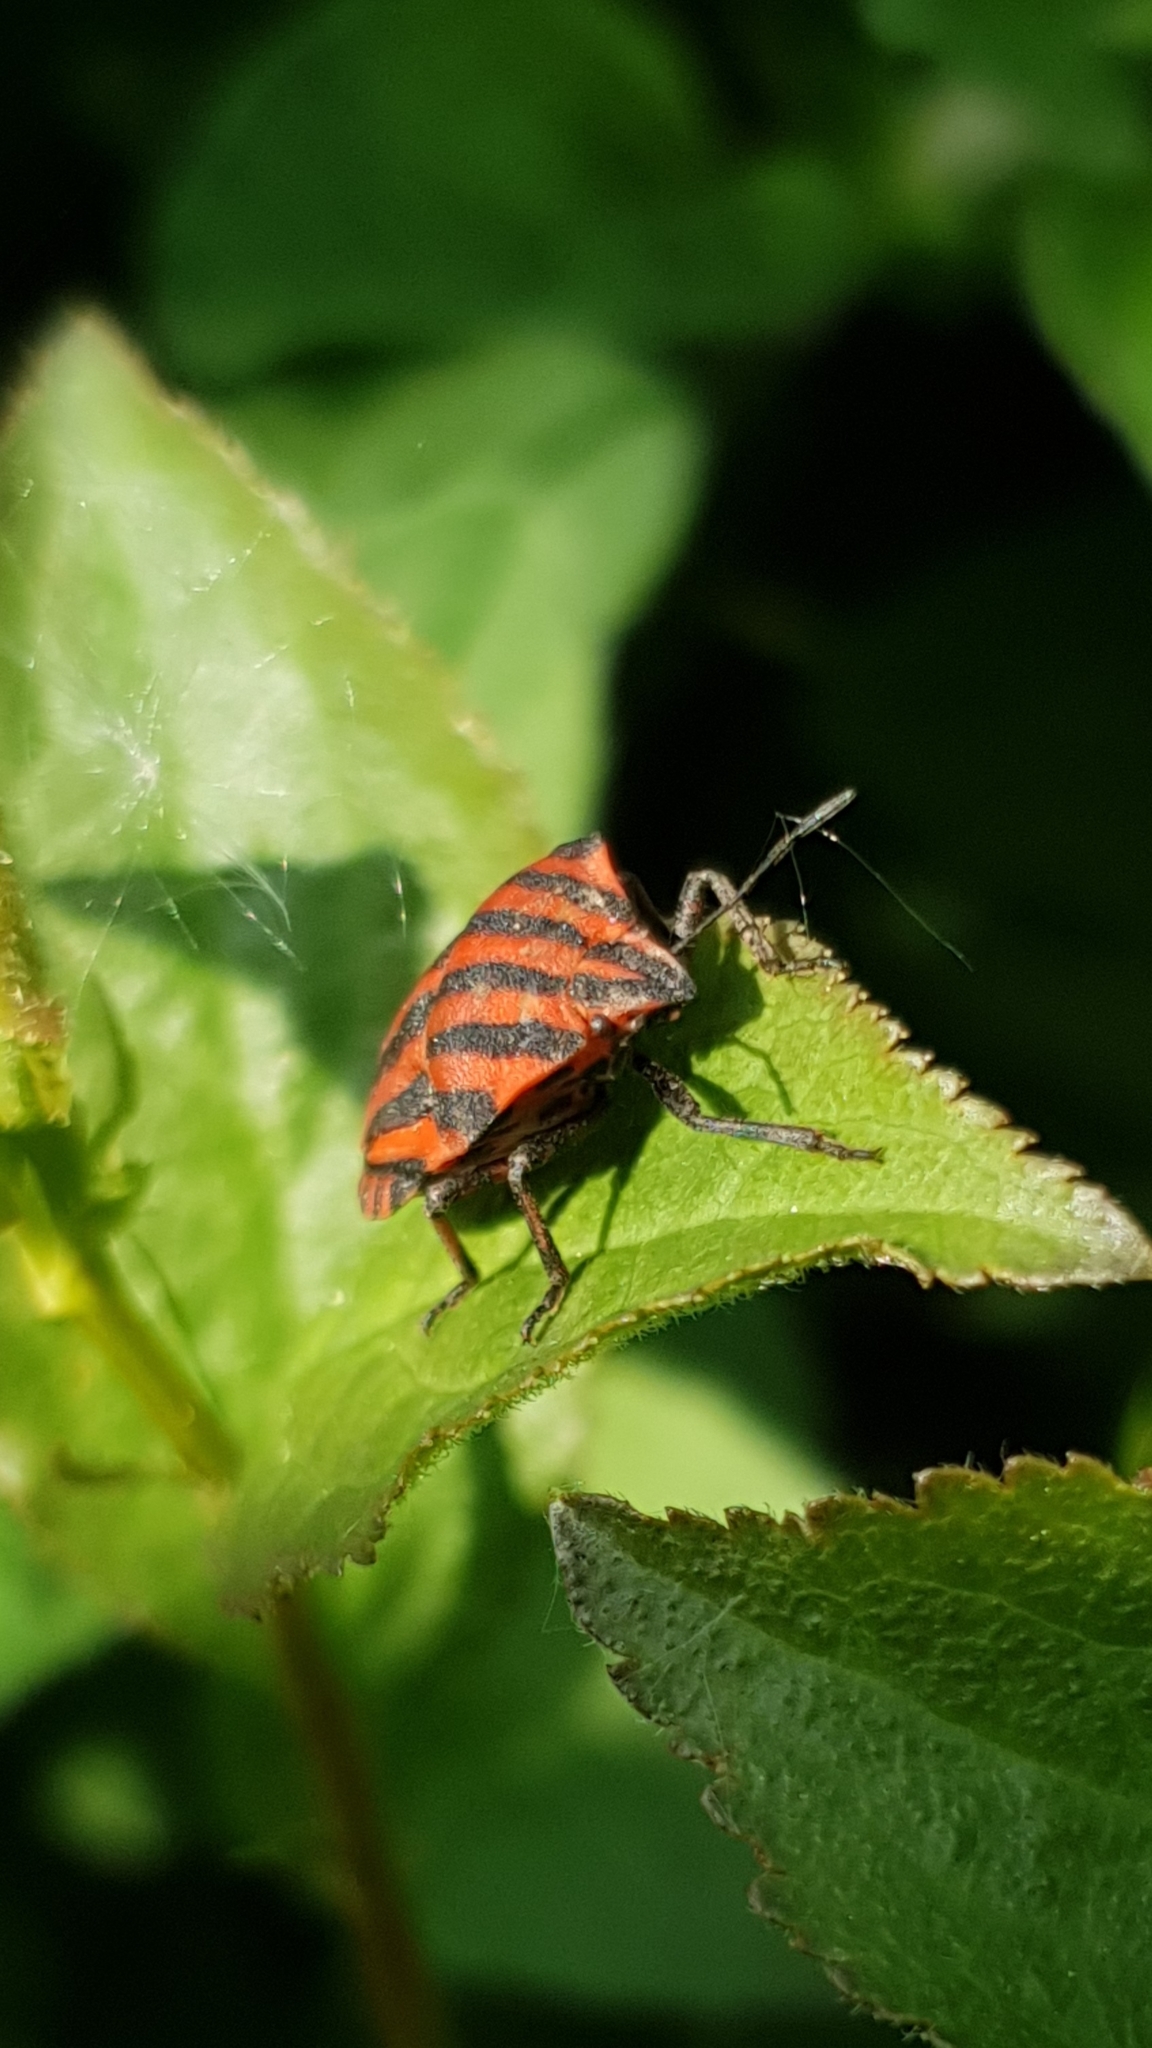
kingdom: Animalia
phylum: Arthropoda
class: Insecta
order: Hemiptera
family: Pentatomidae
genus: Graphosoma
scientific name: Graphosoma italicum
